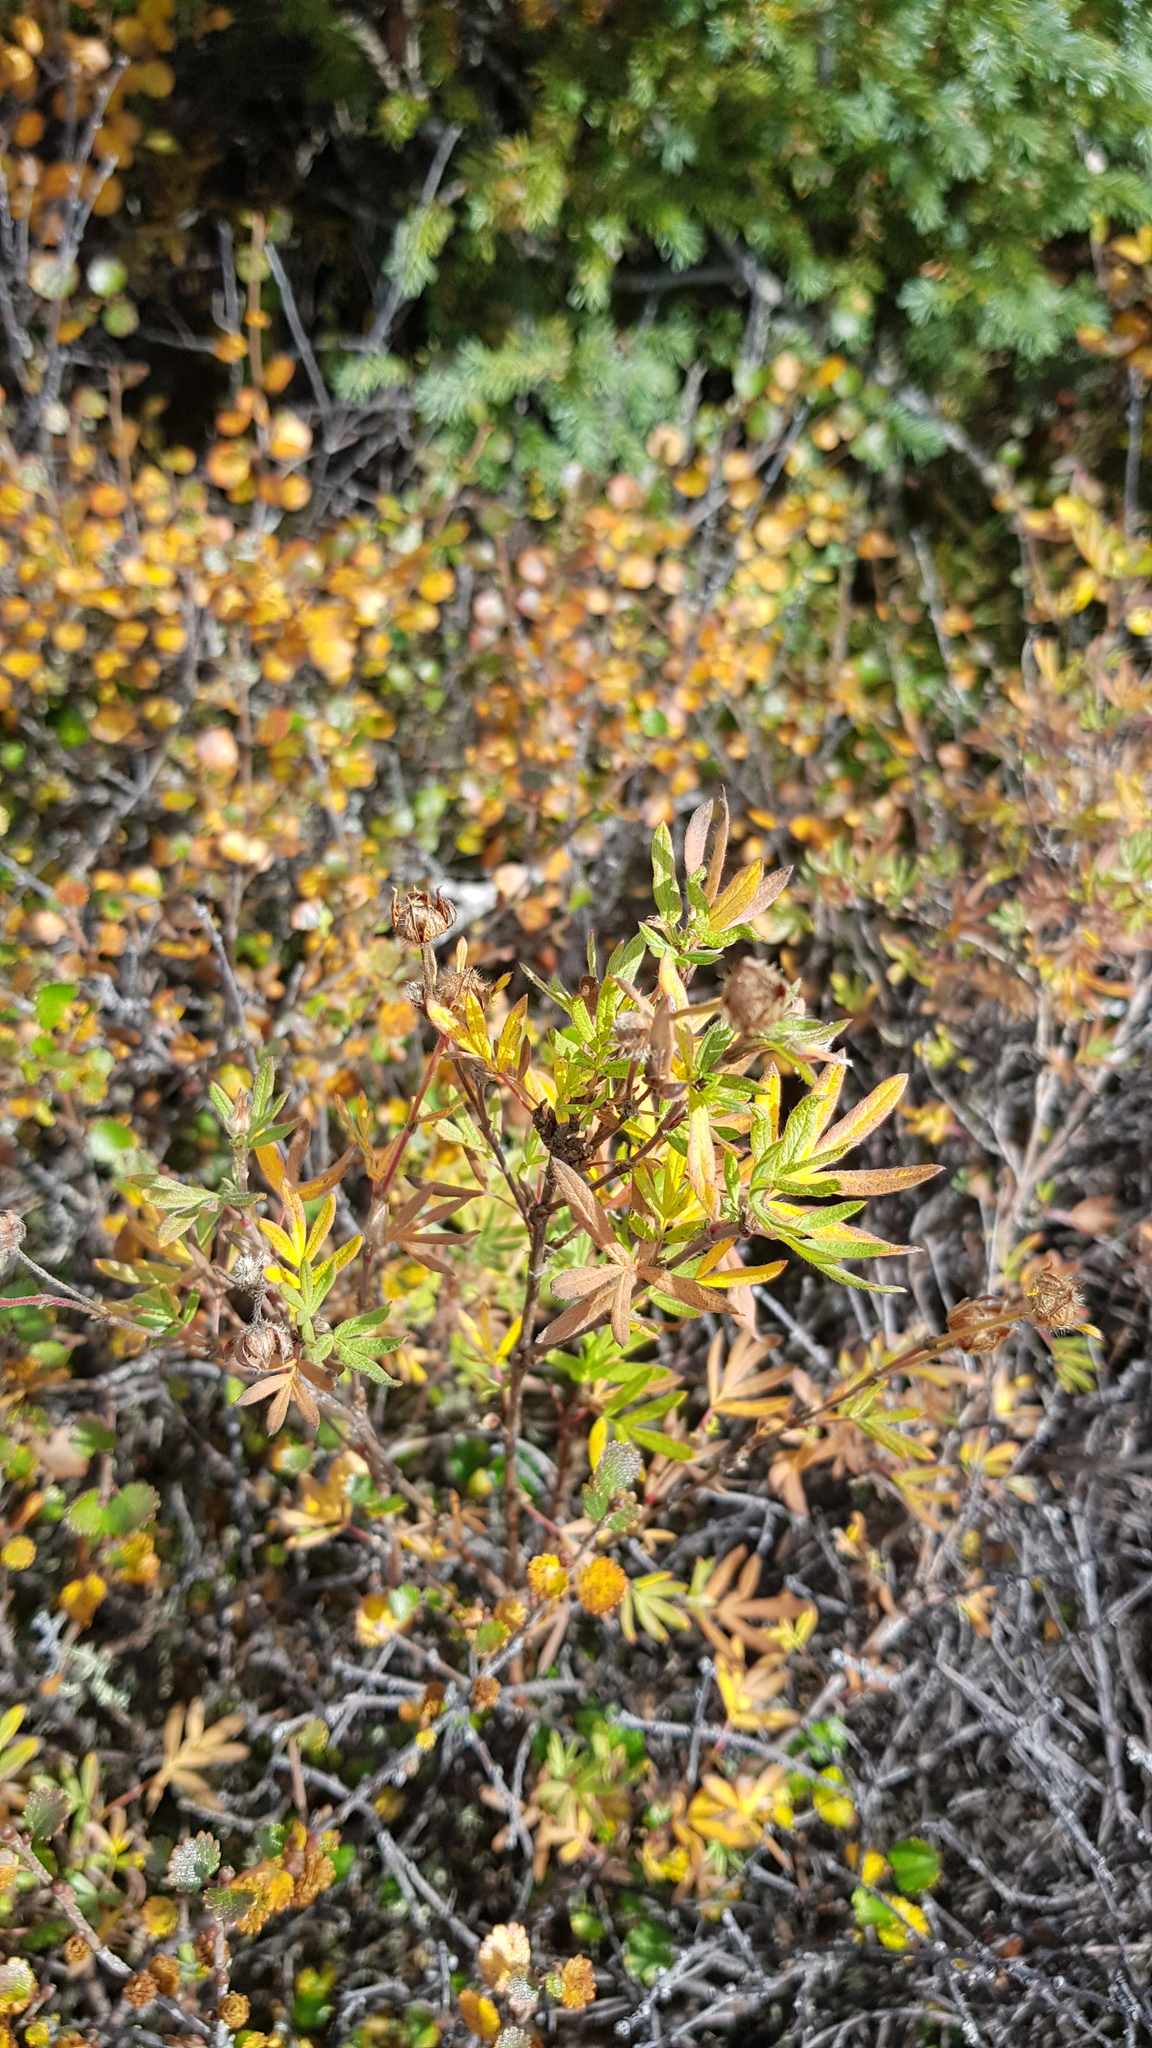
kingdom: Plantae
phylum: Tracheophyta
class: Magnoliopsida
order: Rosales
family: Rosaceae
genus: Dasiphora
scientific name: Dasiphora fruticosa
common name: Shrubby cinquefoil
